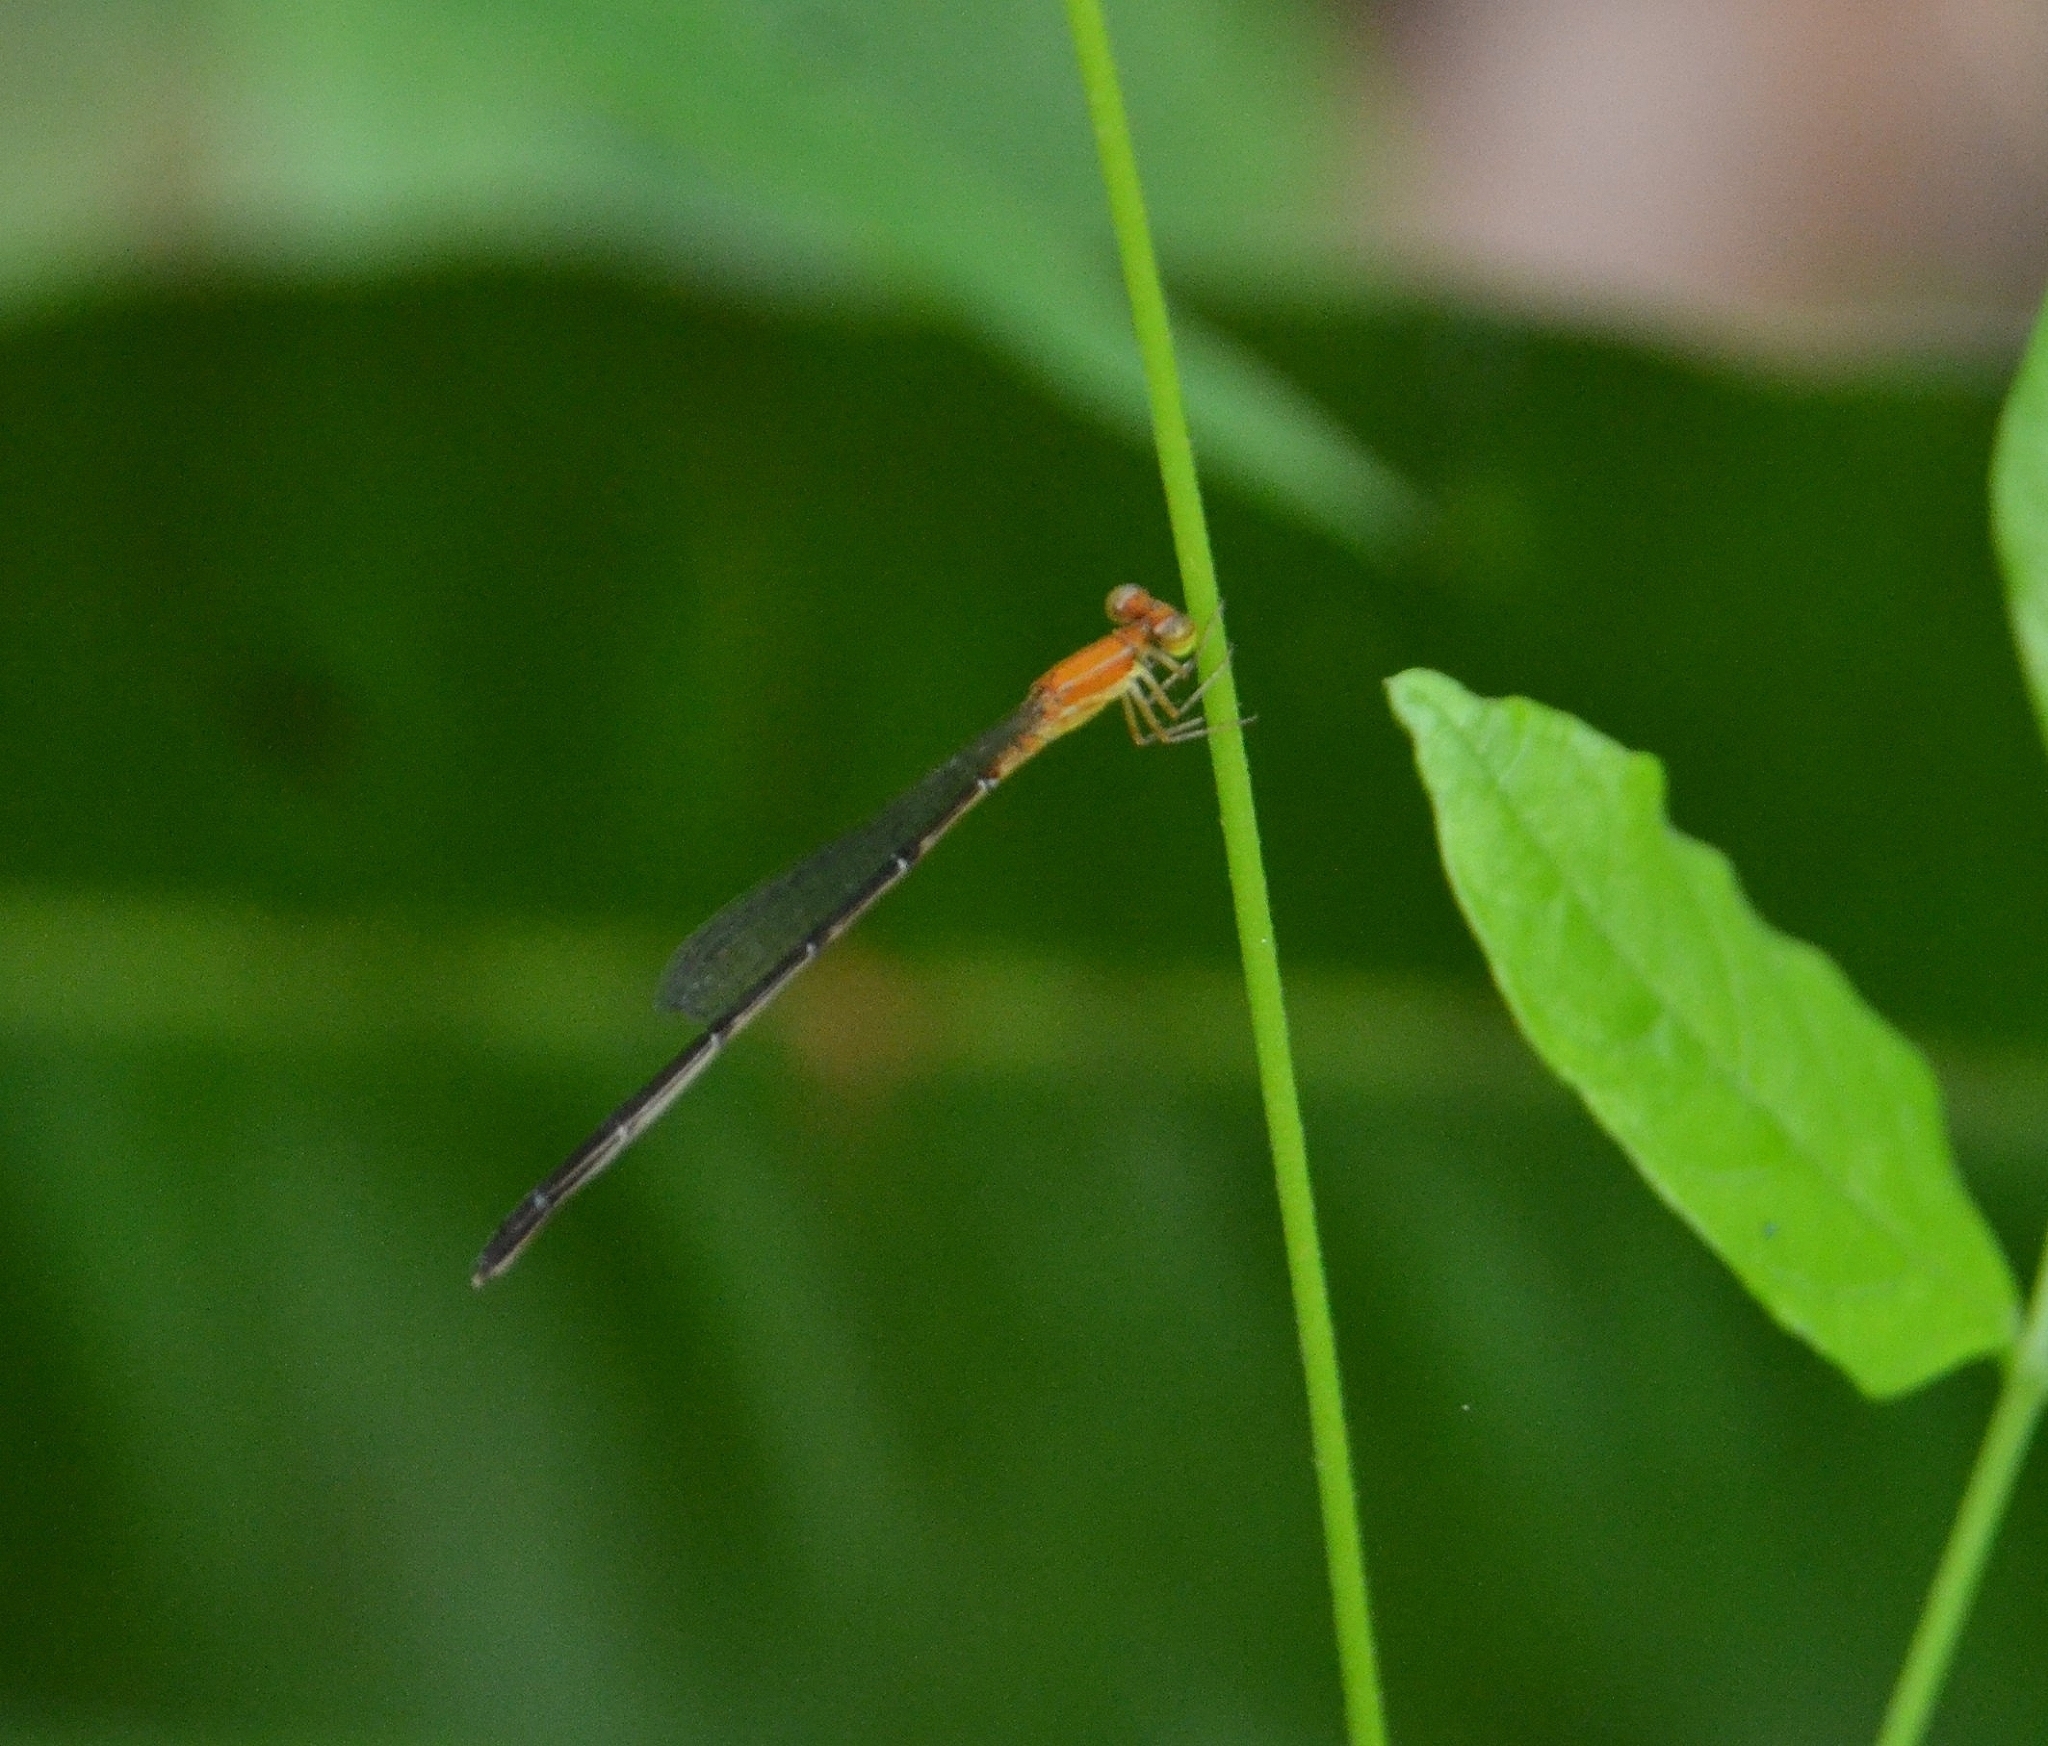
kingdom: Animalia
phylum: Arthropoda
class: Insecta
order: Odonata
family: Coenagrionidae
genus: Mortonagrion
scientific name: Mortonagrion varralli
